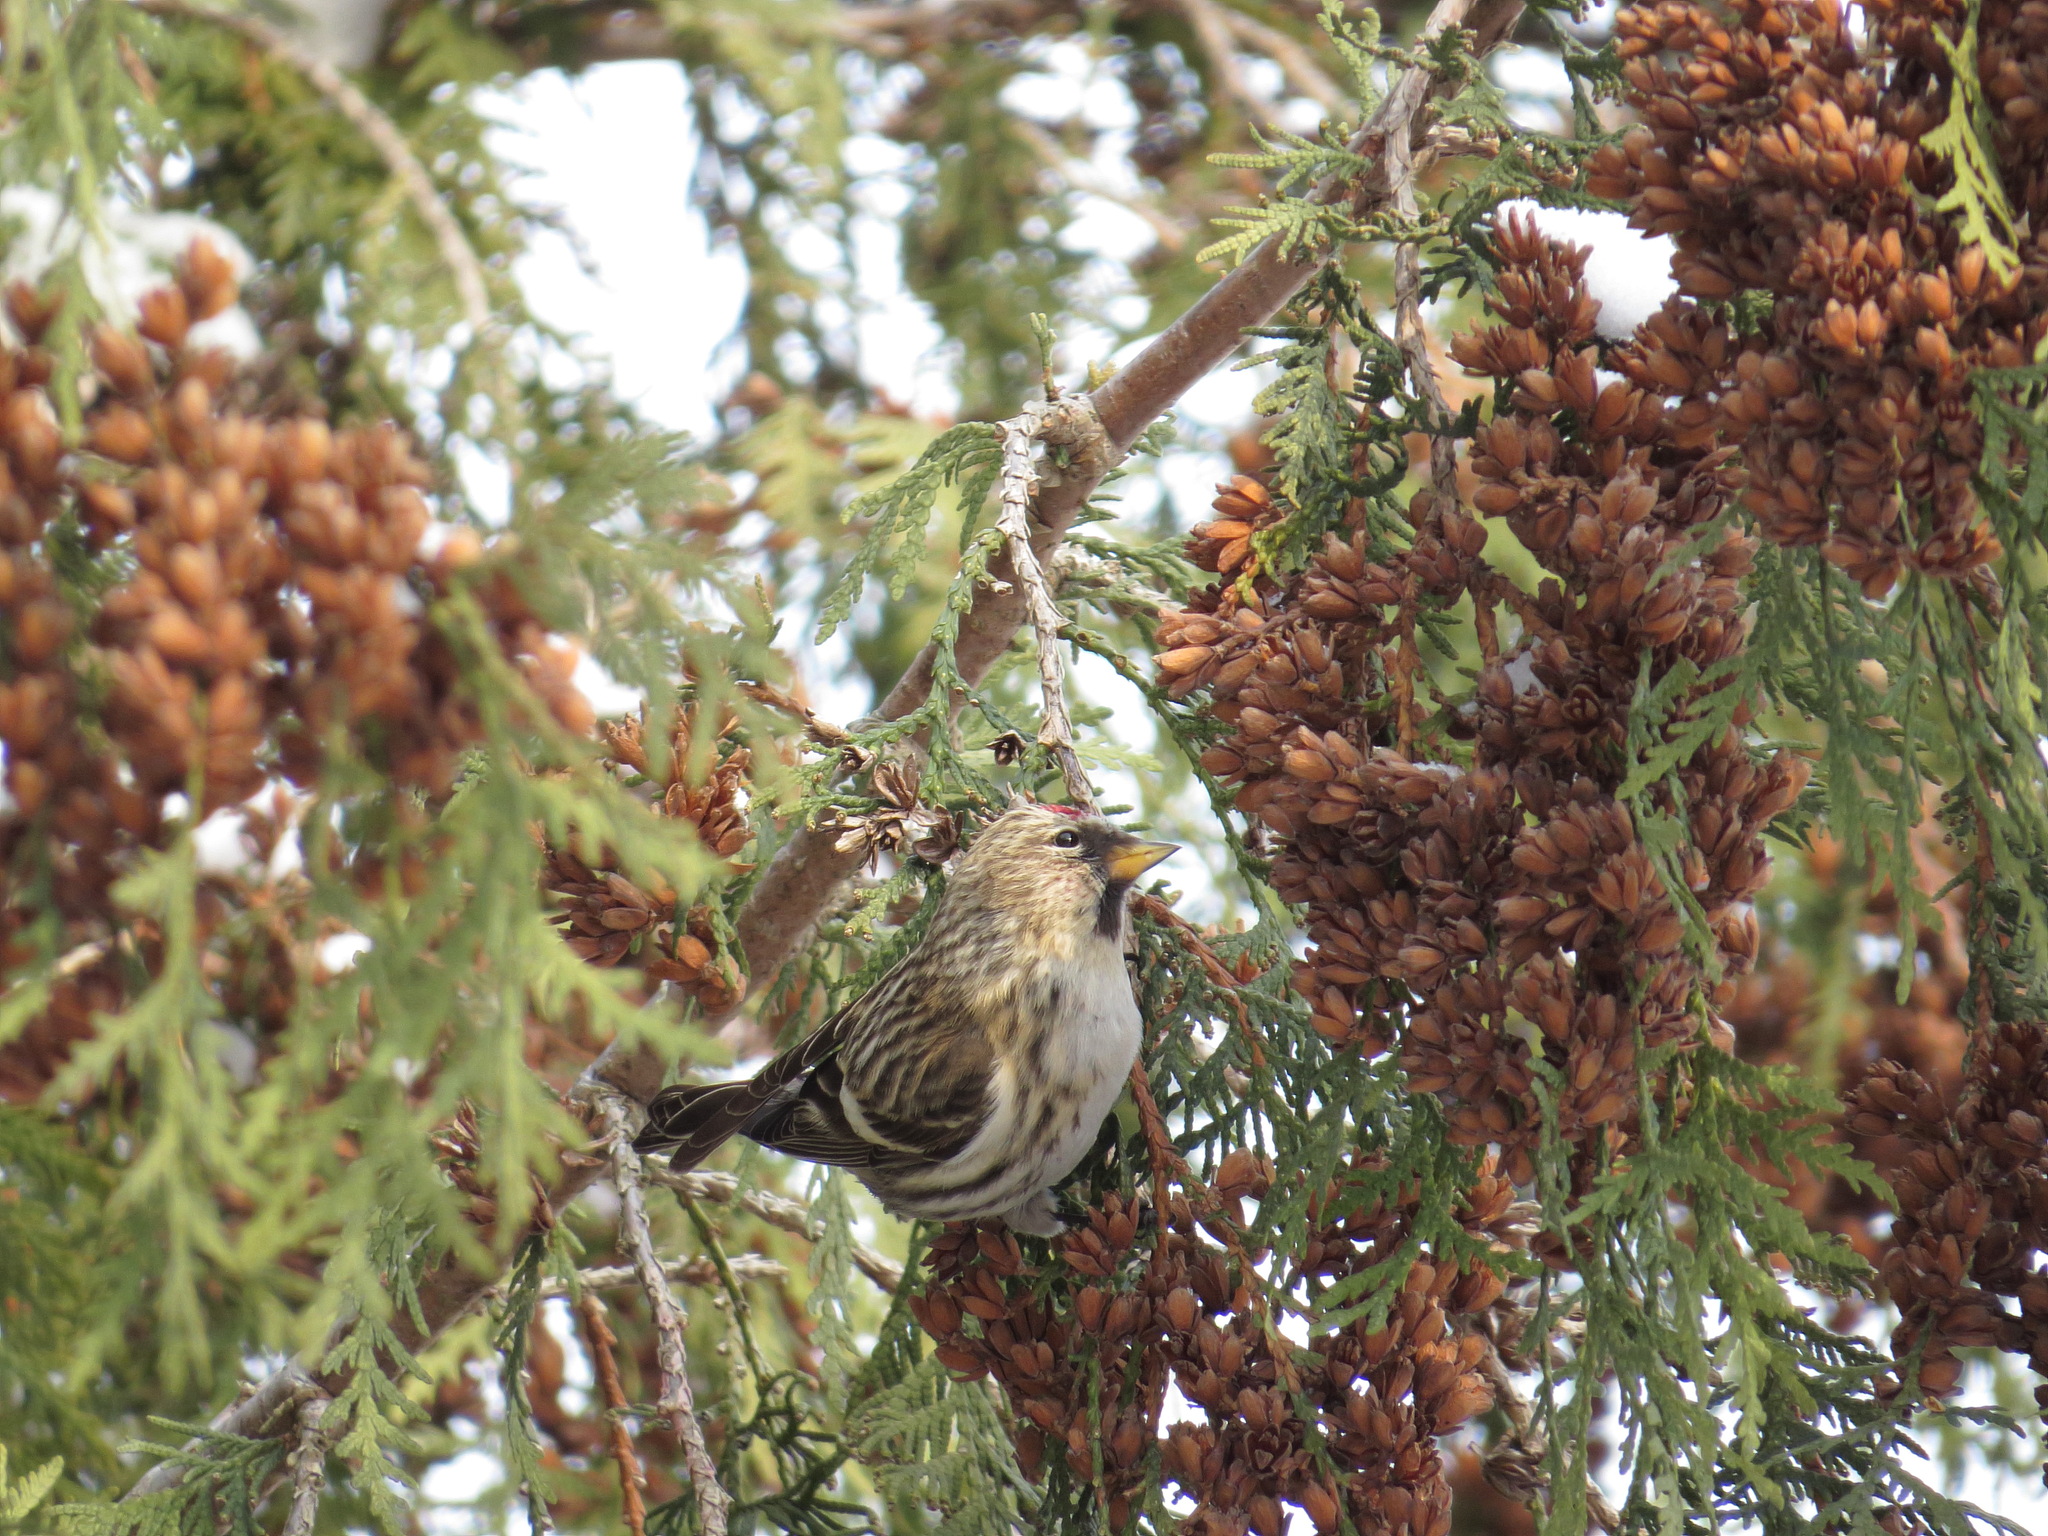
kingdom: Animalia
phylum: Chordata
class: Aves
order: Passeriformes
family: Fringillidae
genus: Acanthis
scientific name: Acanthis flammea
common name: Common redpoll
